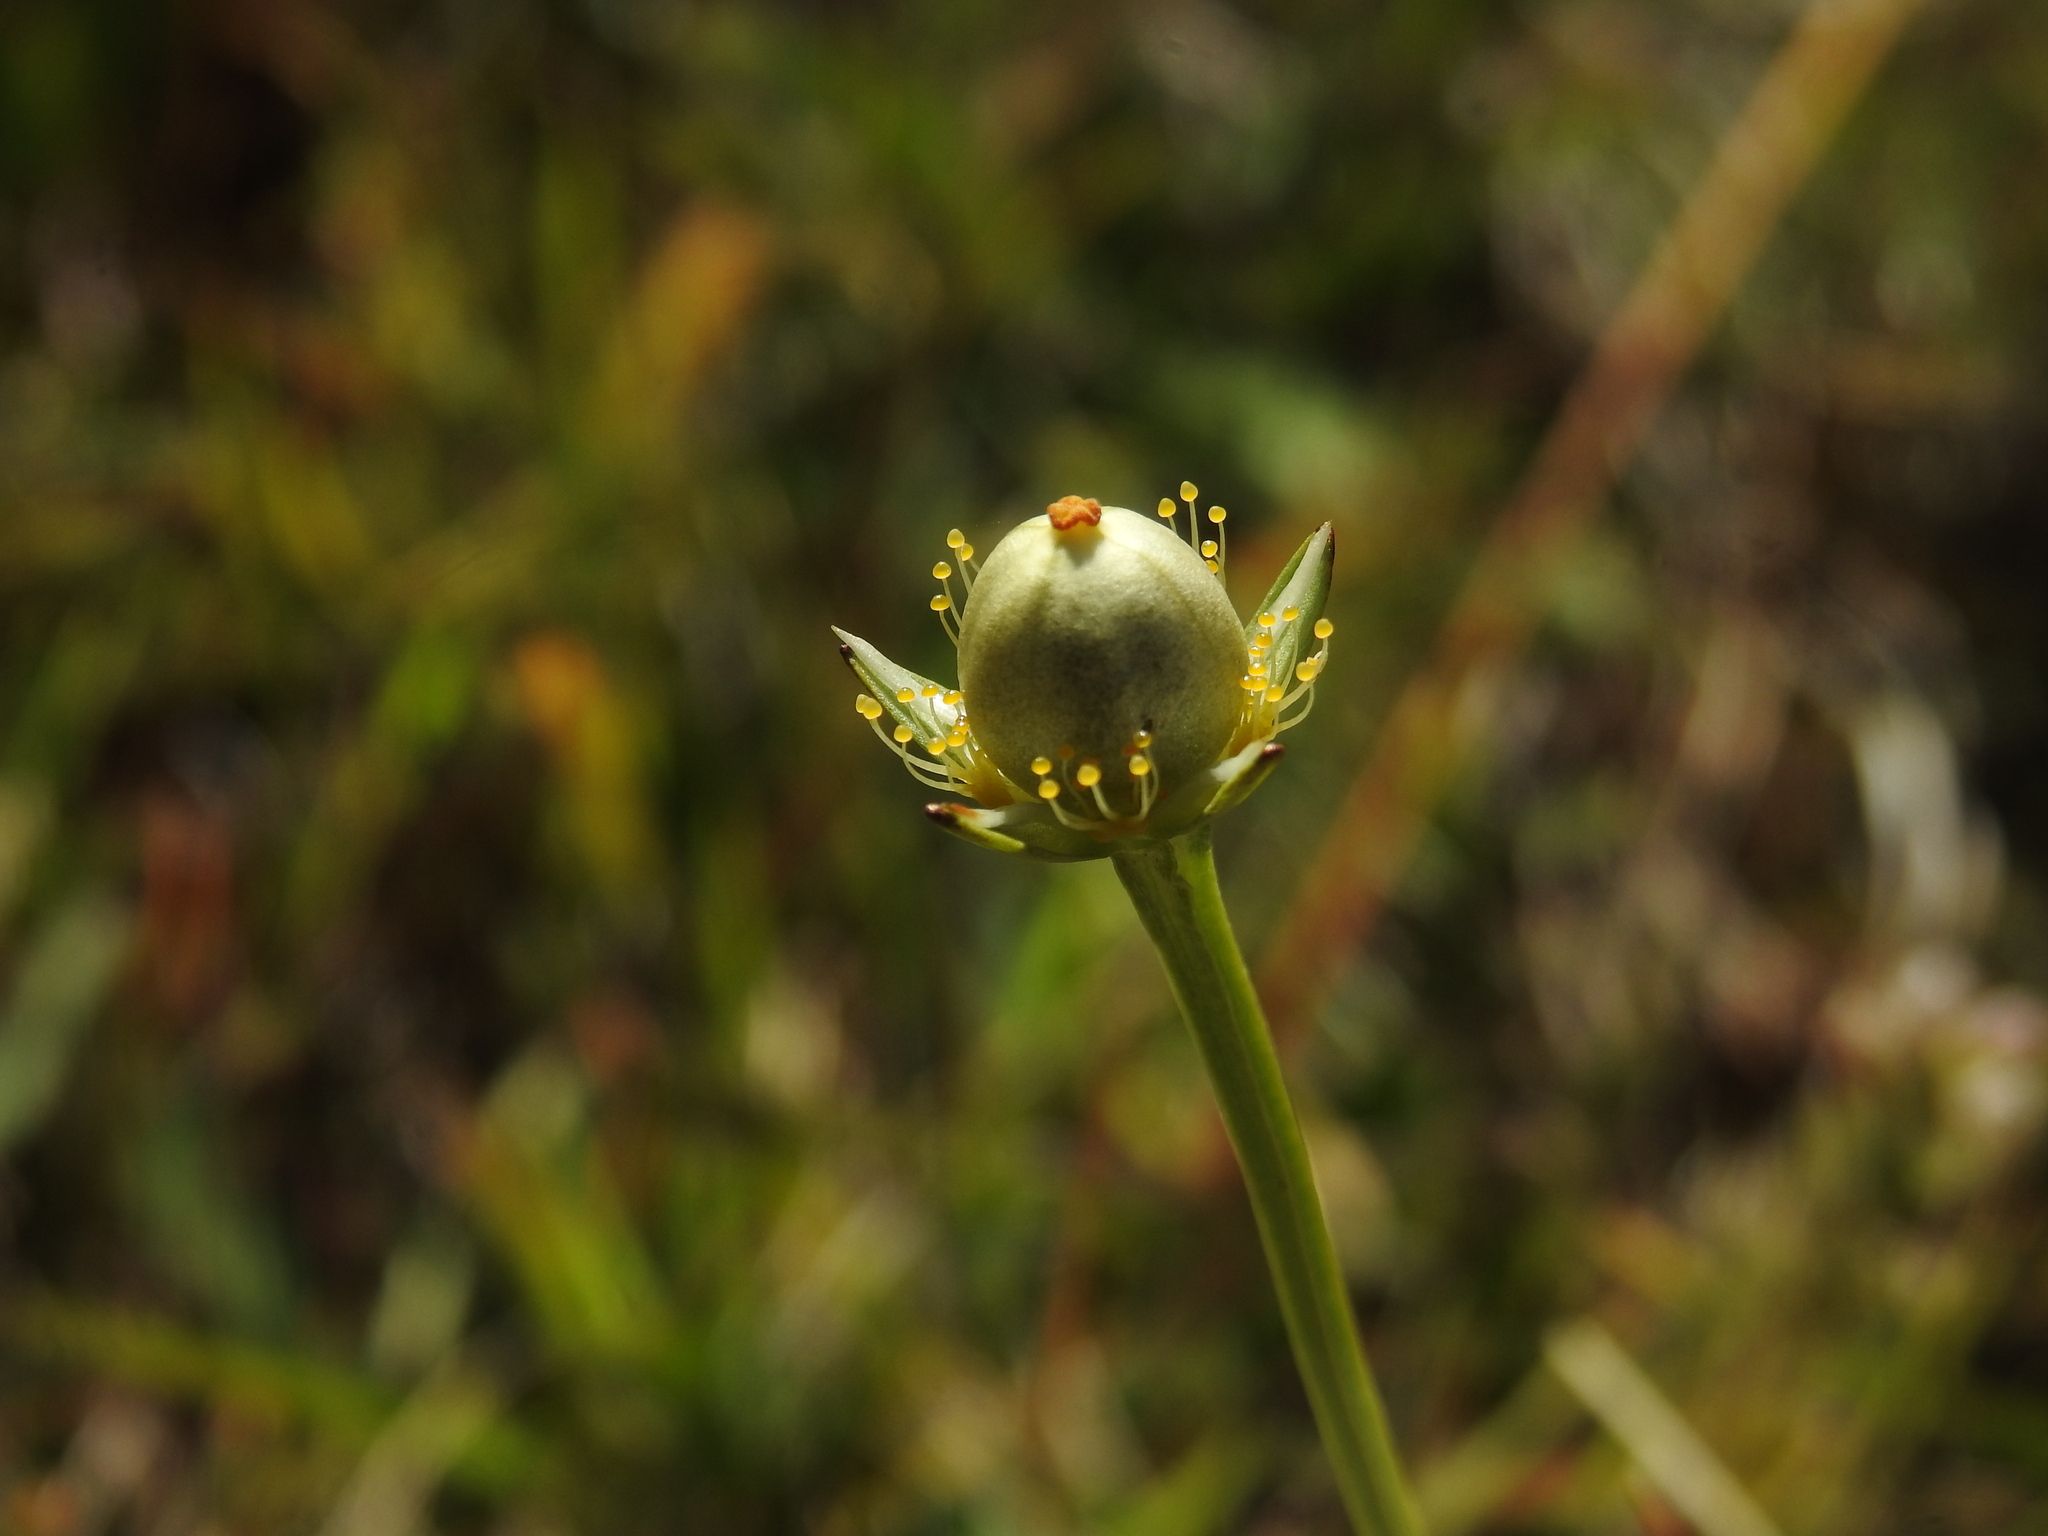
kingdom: Plantae
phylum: Tracheophyta
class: Magnoliopsida
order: Celastrales
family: Parnassiaceae
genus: Parnassia
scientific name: Parnassia palustris
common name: Grass-of-parnassus
